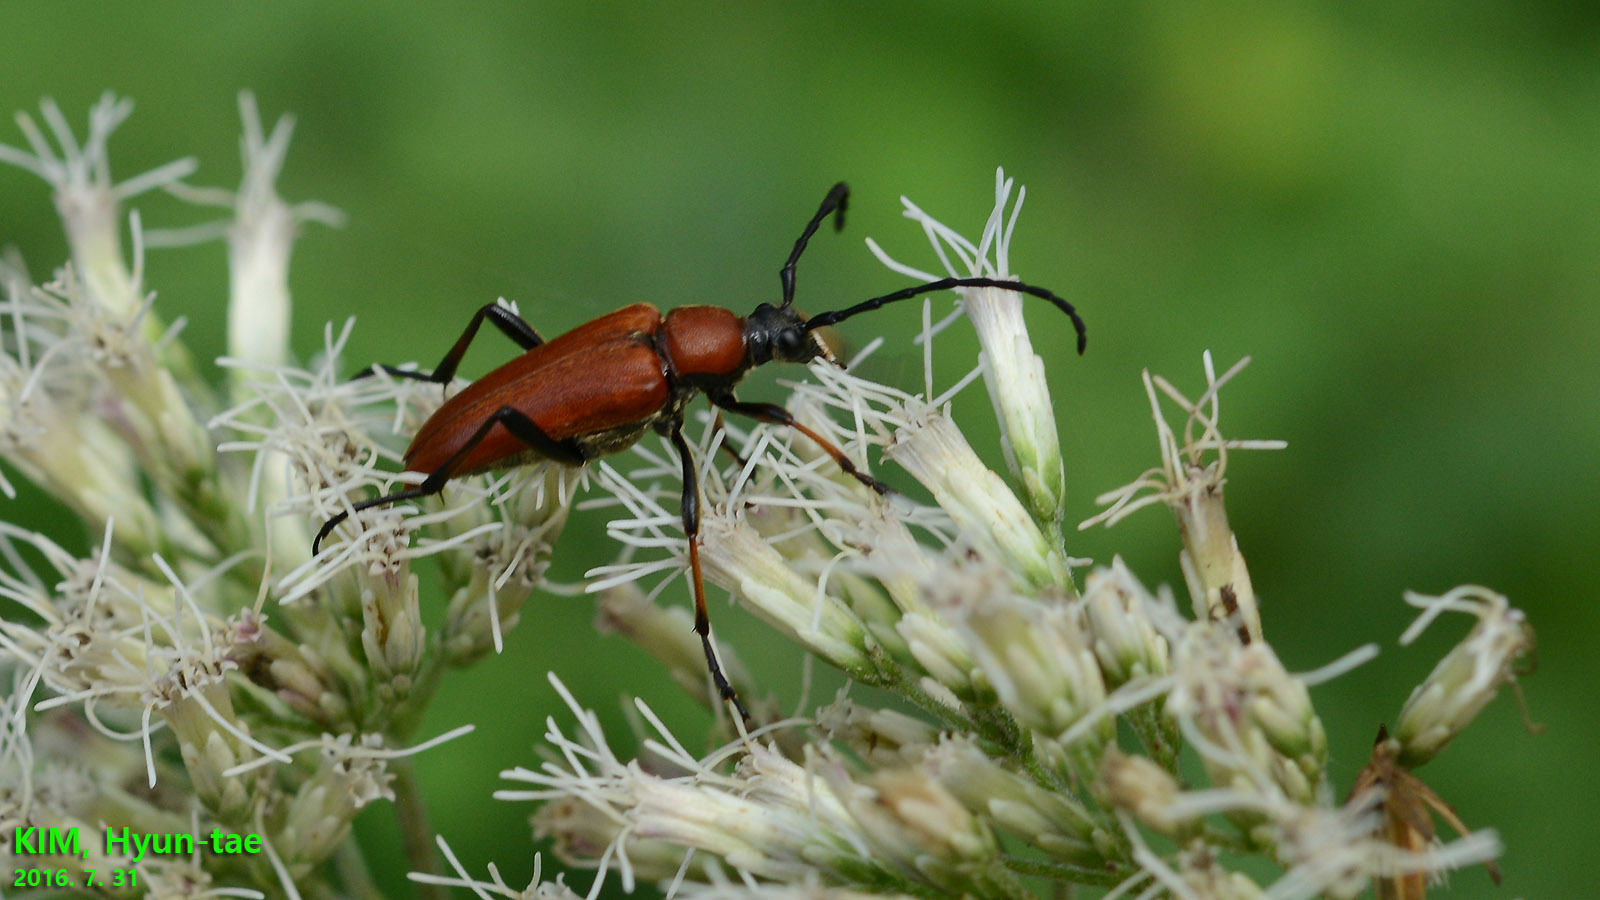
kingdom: Animalia
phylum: Arthropoda
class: Insecta
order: Coleoptera
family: Cerambycidae
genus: Stictoleptura
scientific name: Stictoleptura dichroa
